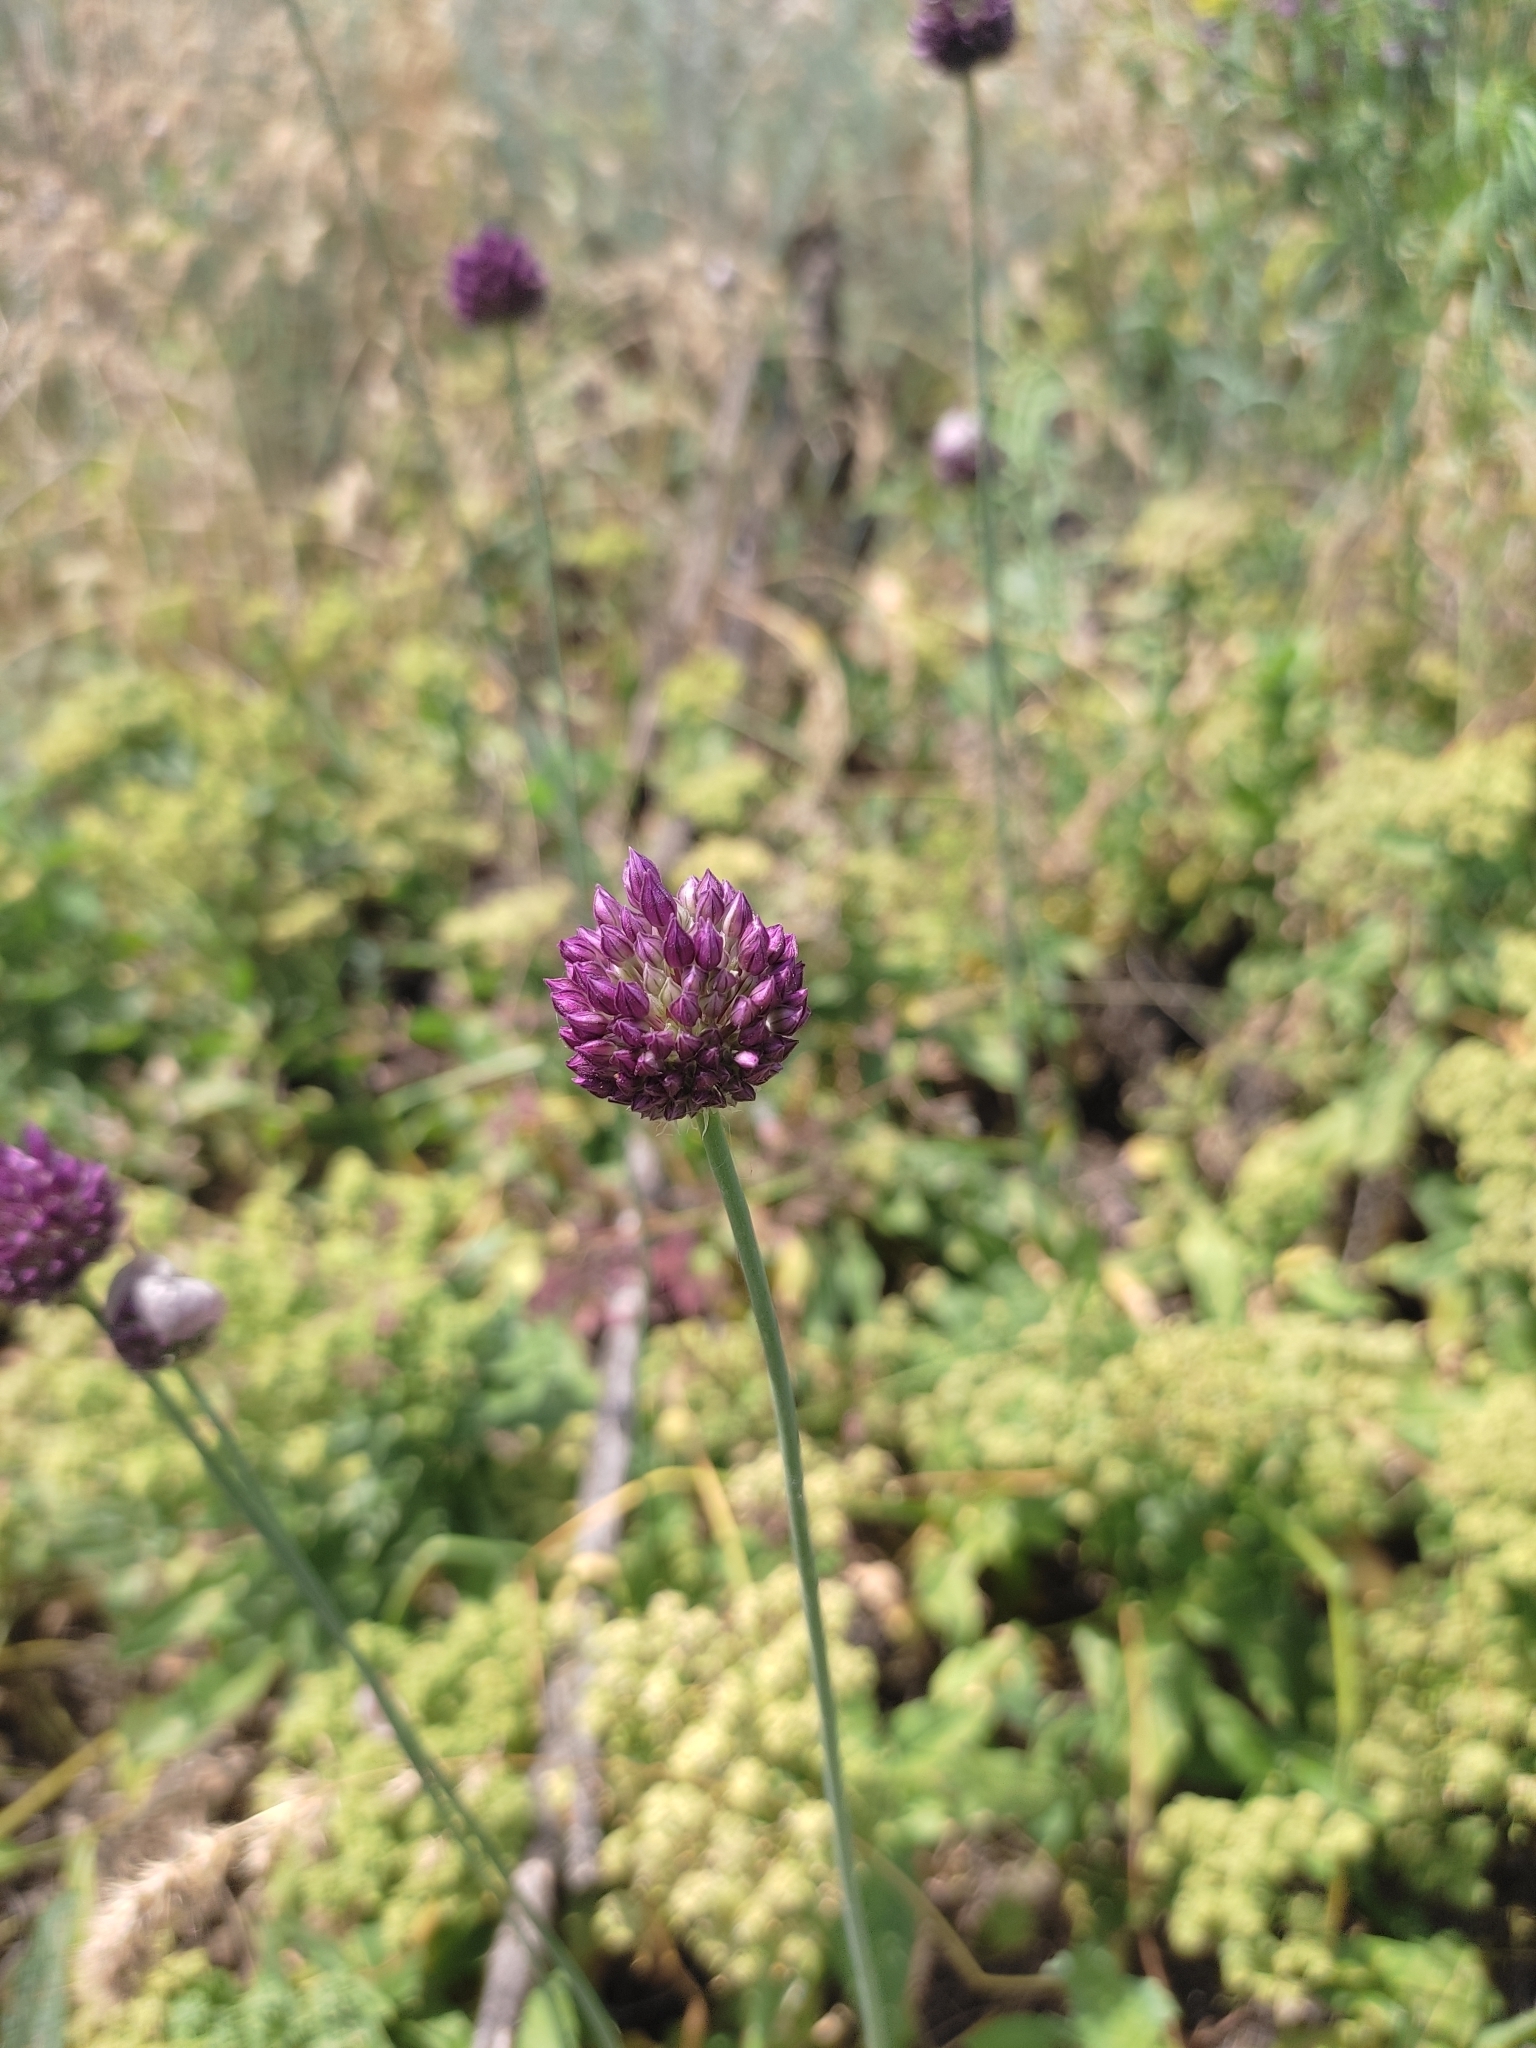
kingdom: Plantae
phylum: Tracheophyta
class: Liliopsida
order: Asparagales
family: Amaryllidaceae
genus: Allium
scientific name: Allium rotundum
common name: Sand leek
